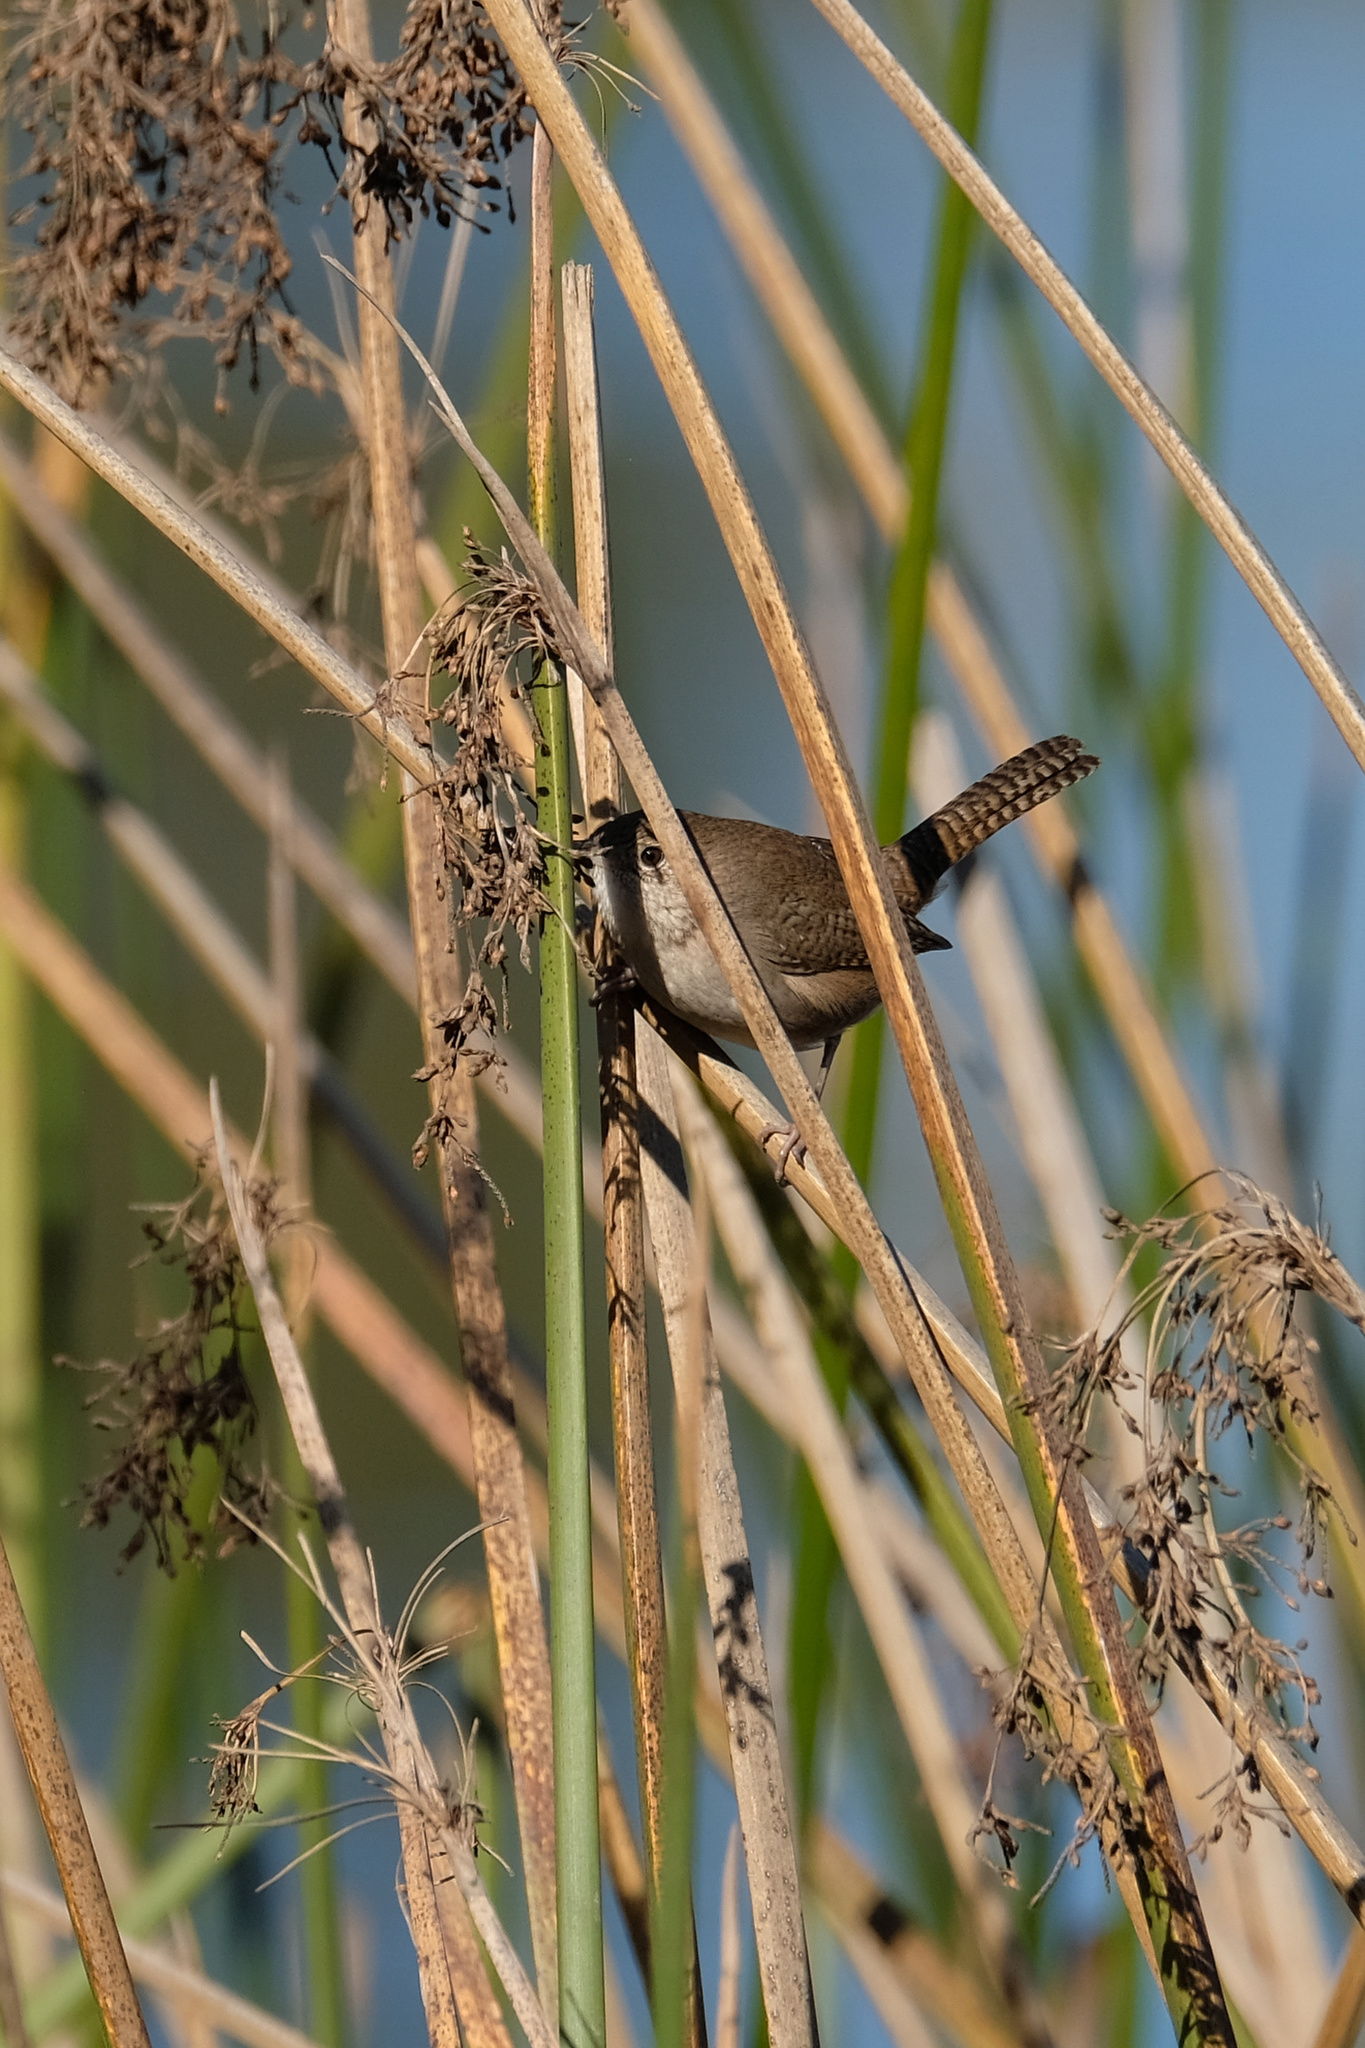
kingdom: Animalia
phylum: Chordata
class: Aves
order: Passeriformes
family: Troglodytidae
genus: Troglodytes
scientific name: Troglodytes aedon
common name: House wren
